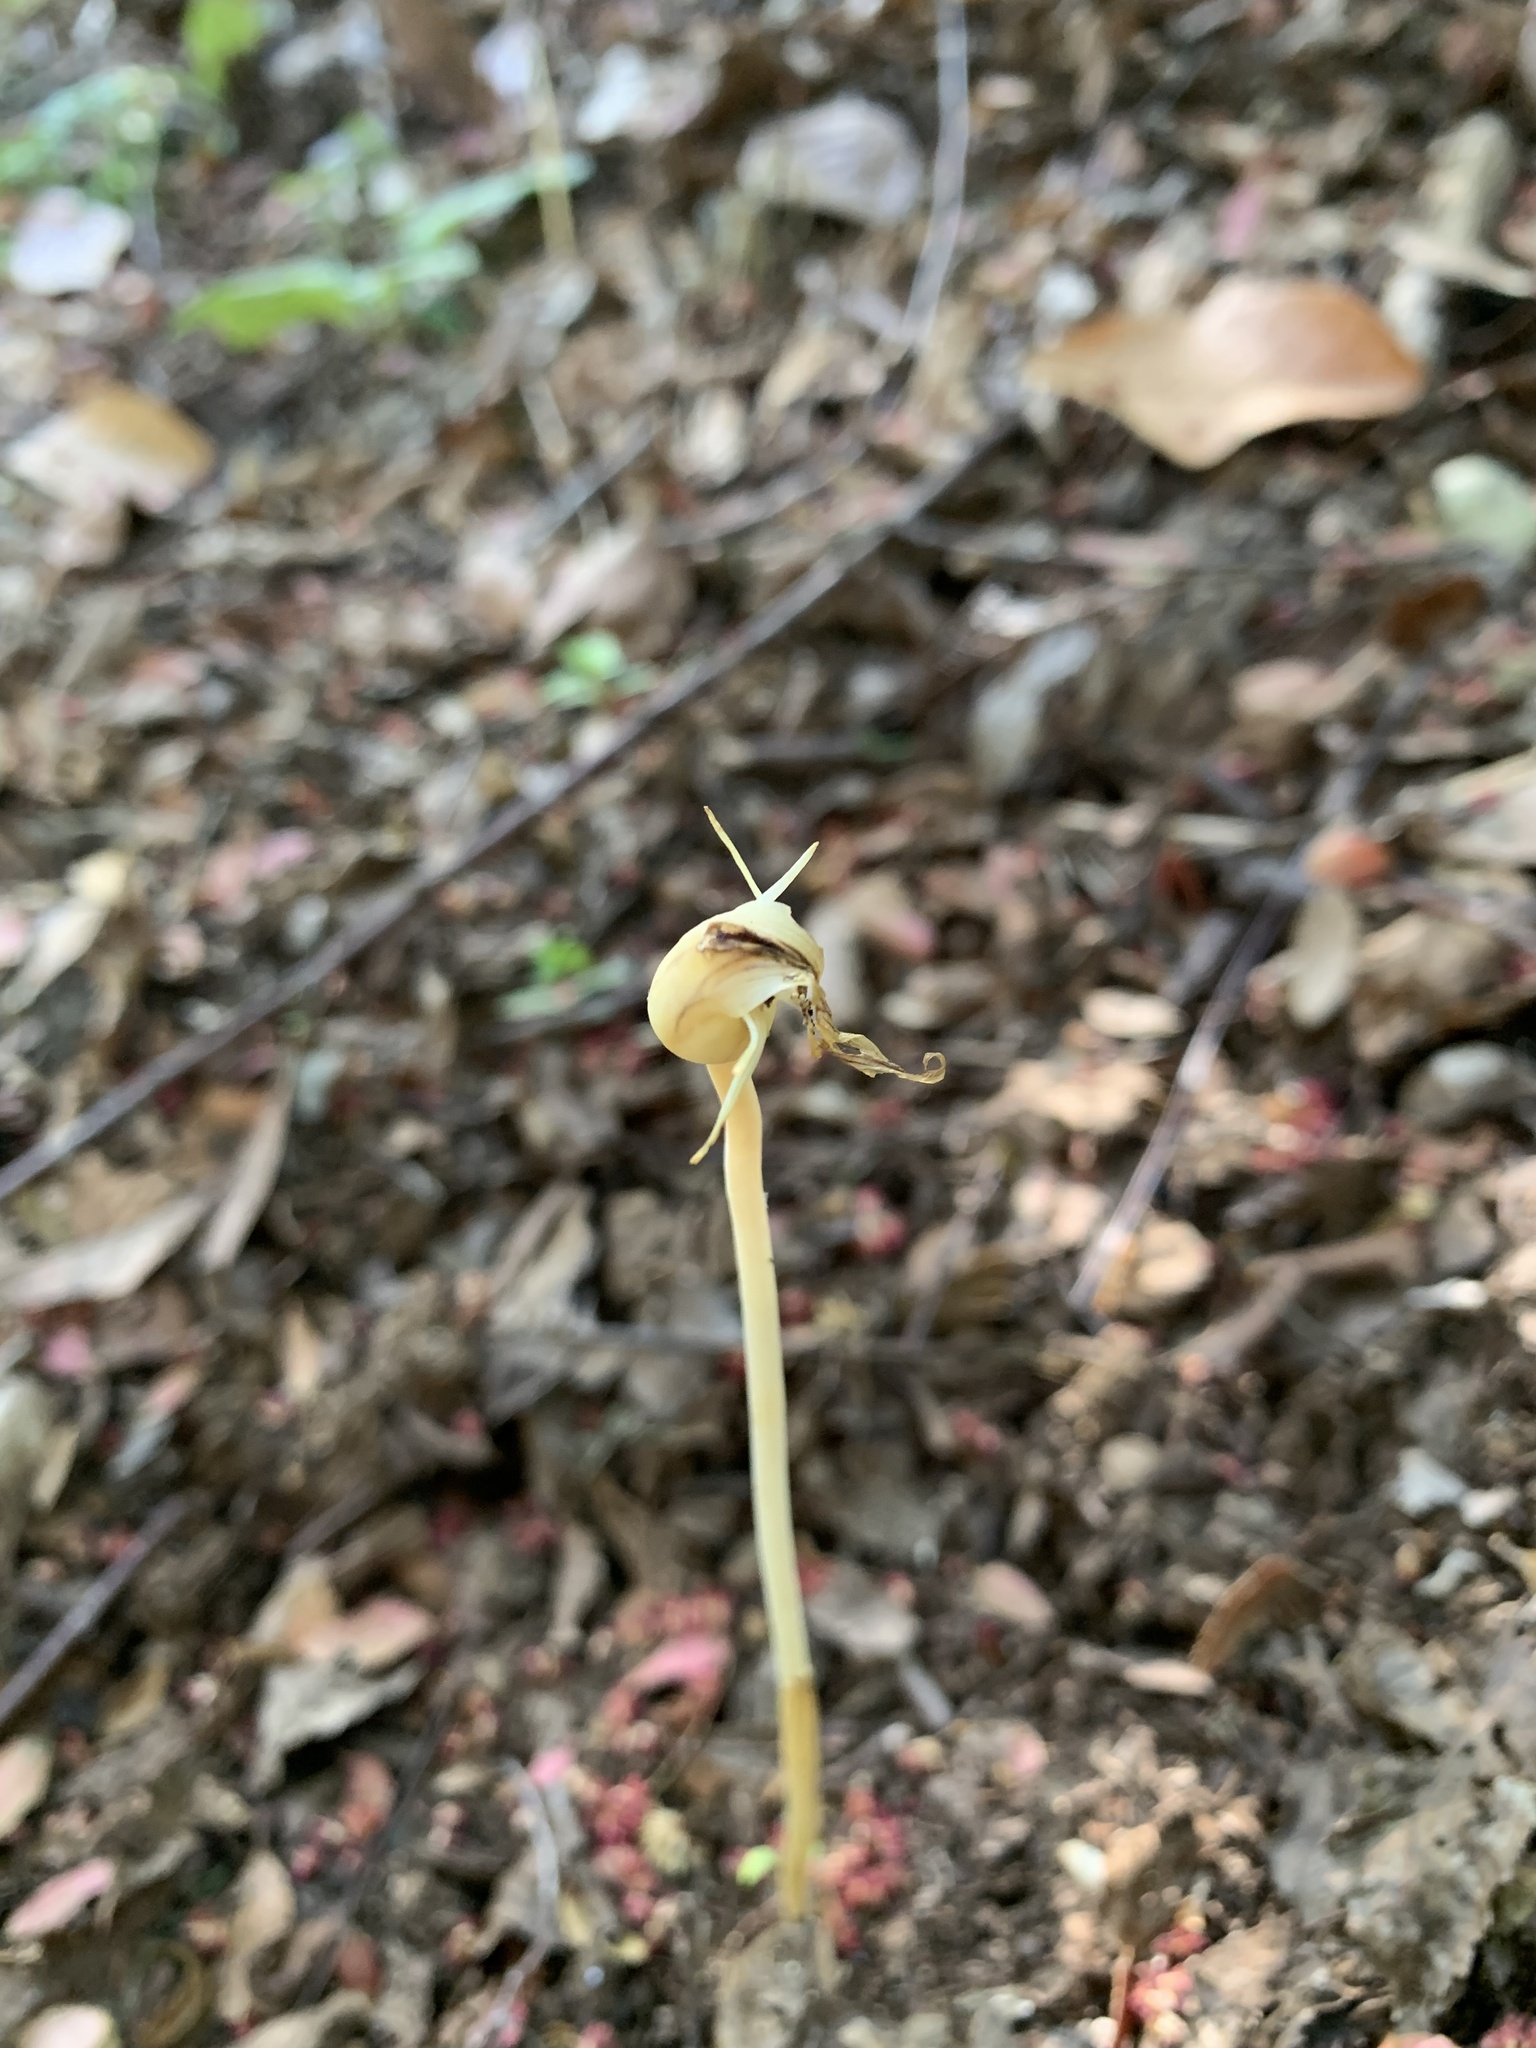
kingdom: Plantae
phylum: Tracheophyta
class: Liliopsida
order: Liliales
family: Corsiaceae
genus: Arachnitis
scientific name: Arachnitis uniflora
